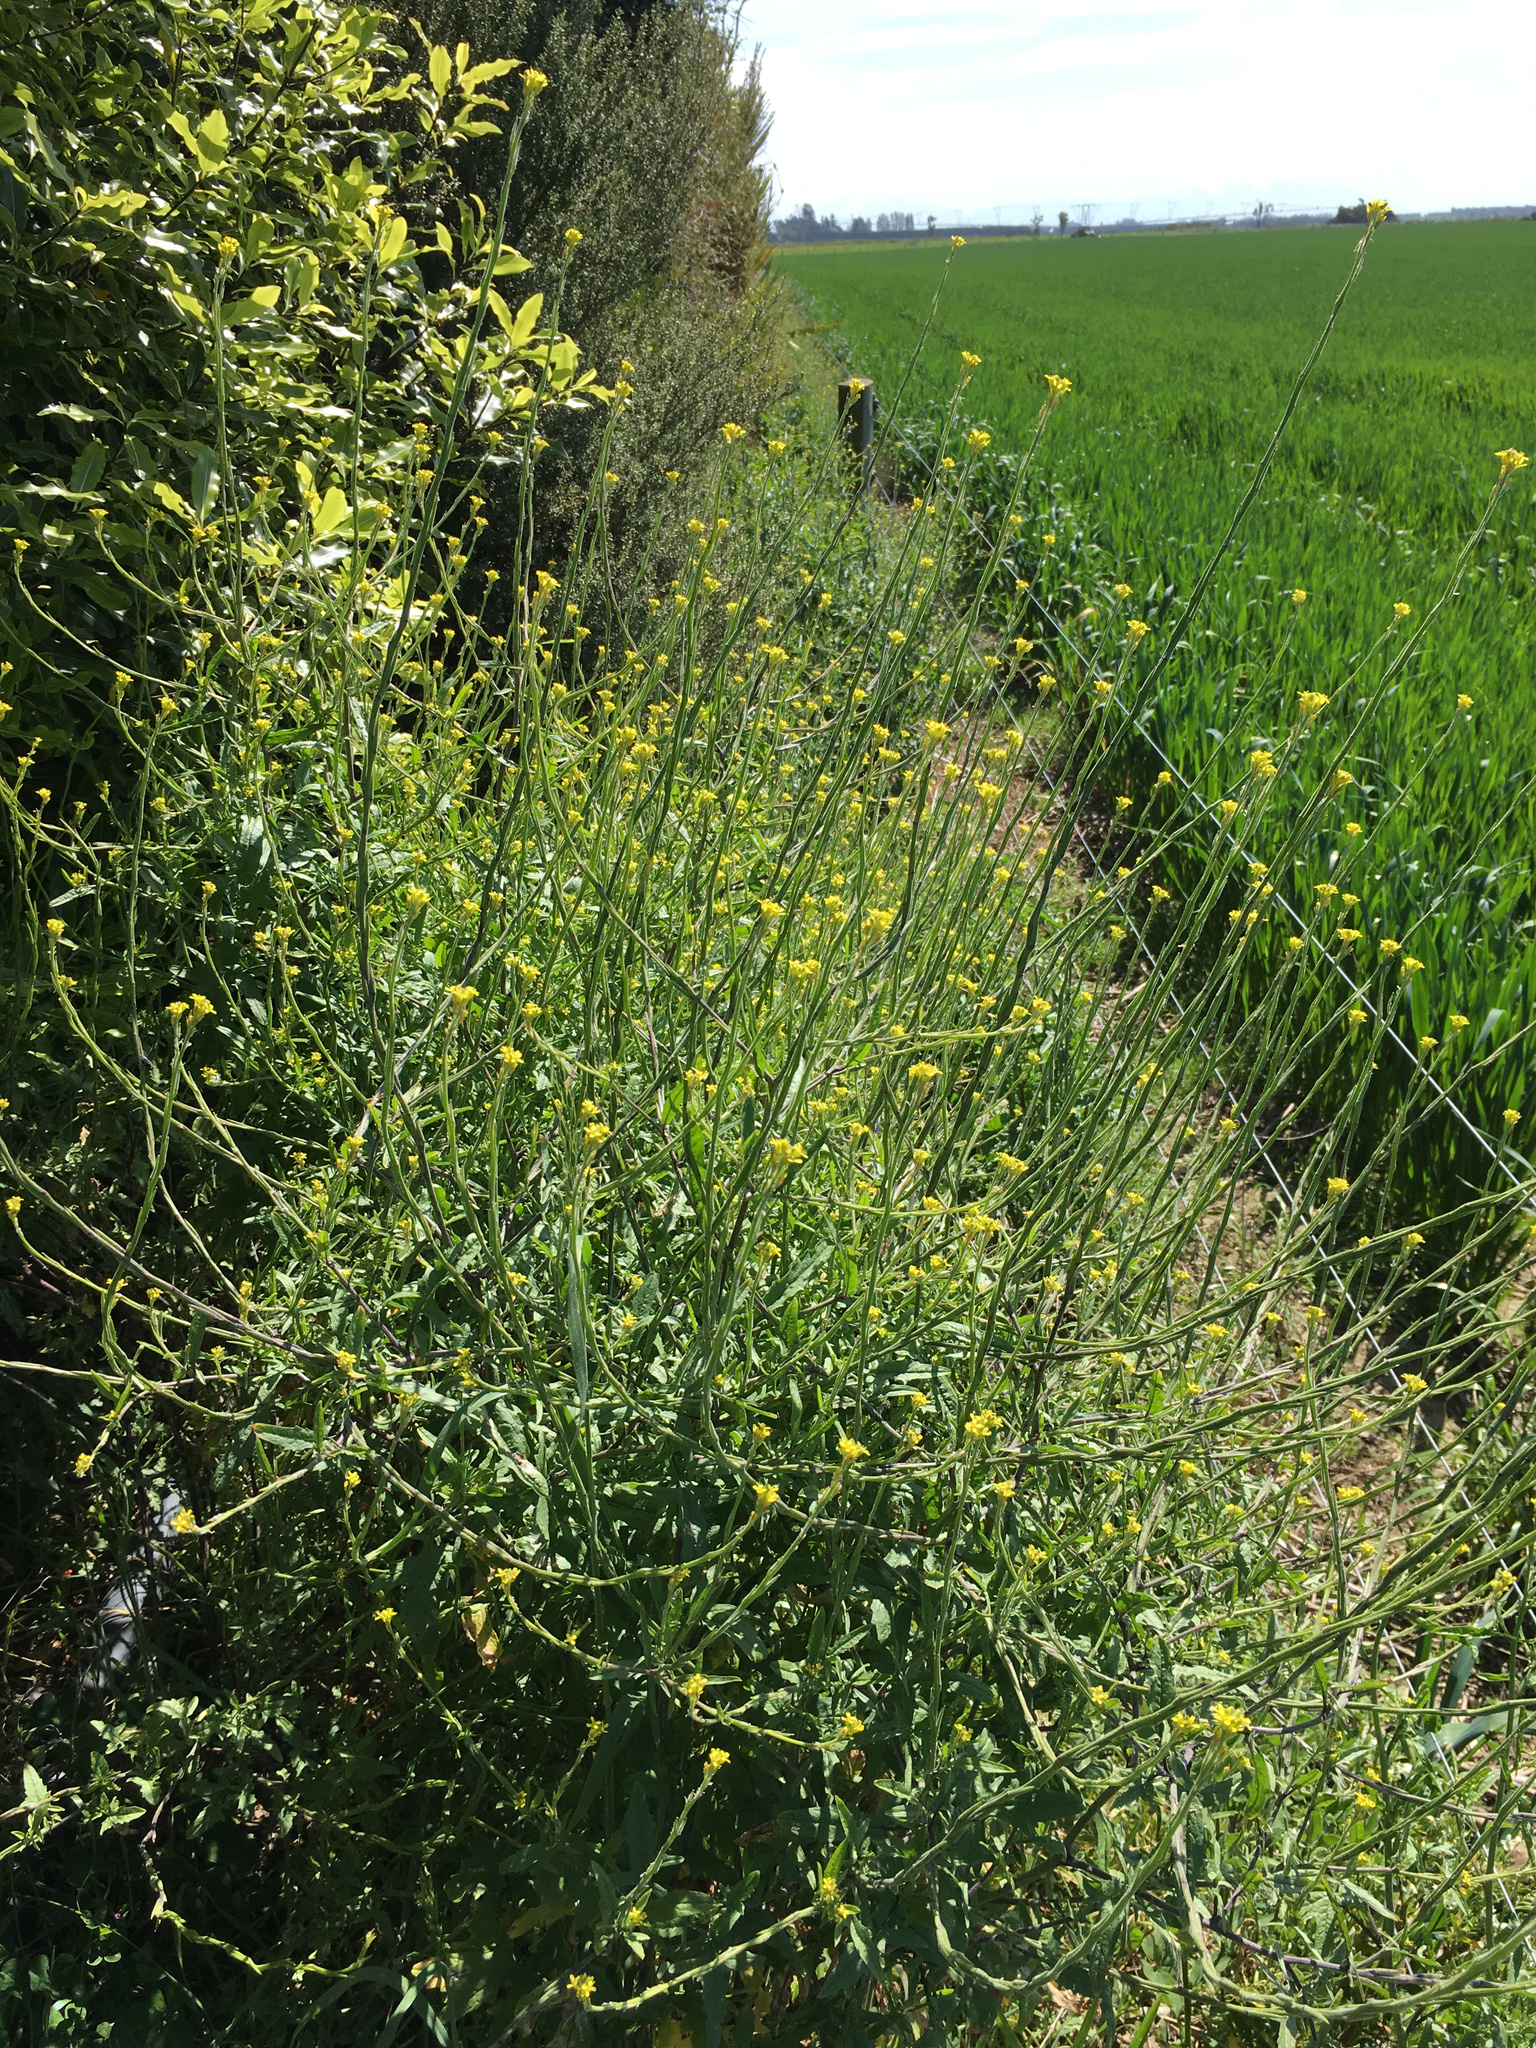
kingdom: Plantae
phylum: Tracheophyta
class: Magnoliopsida
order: Brassicales
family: Brassicaceae
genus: Sisymbrium
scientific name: Sisymbrium officinale
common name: Hedge mustard
